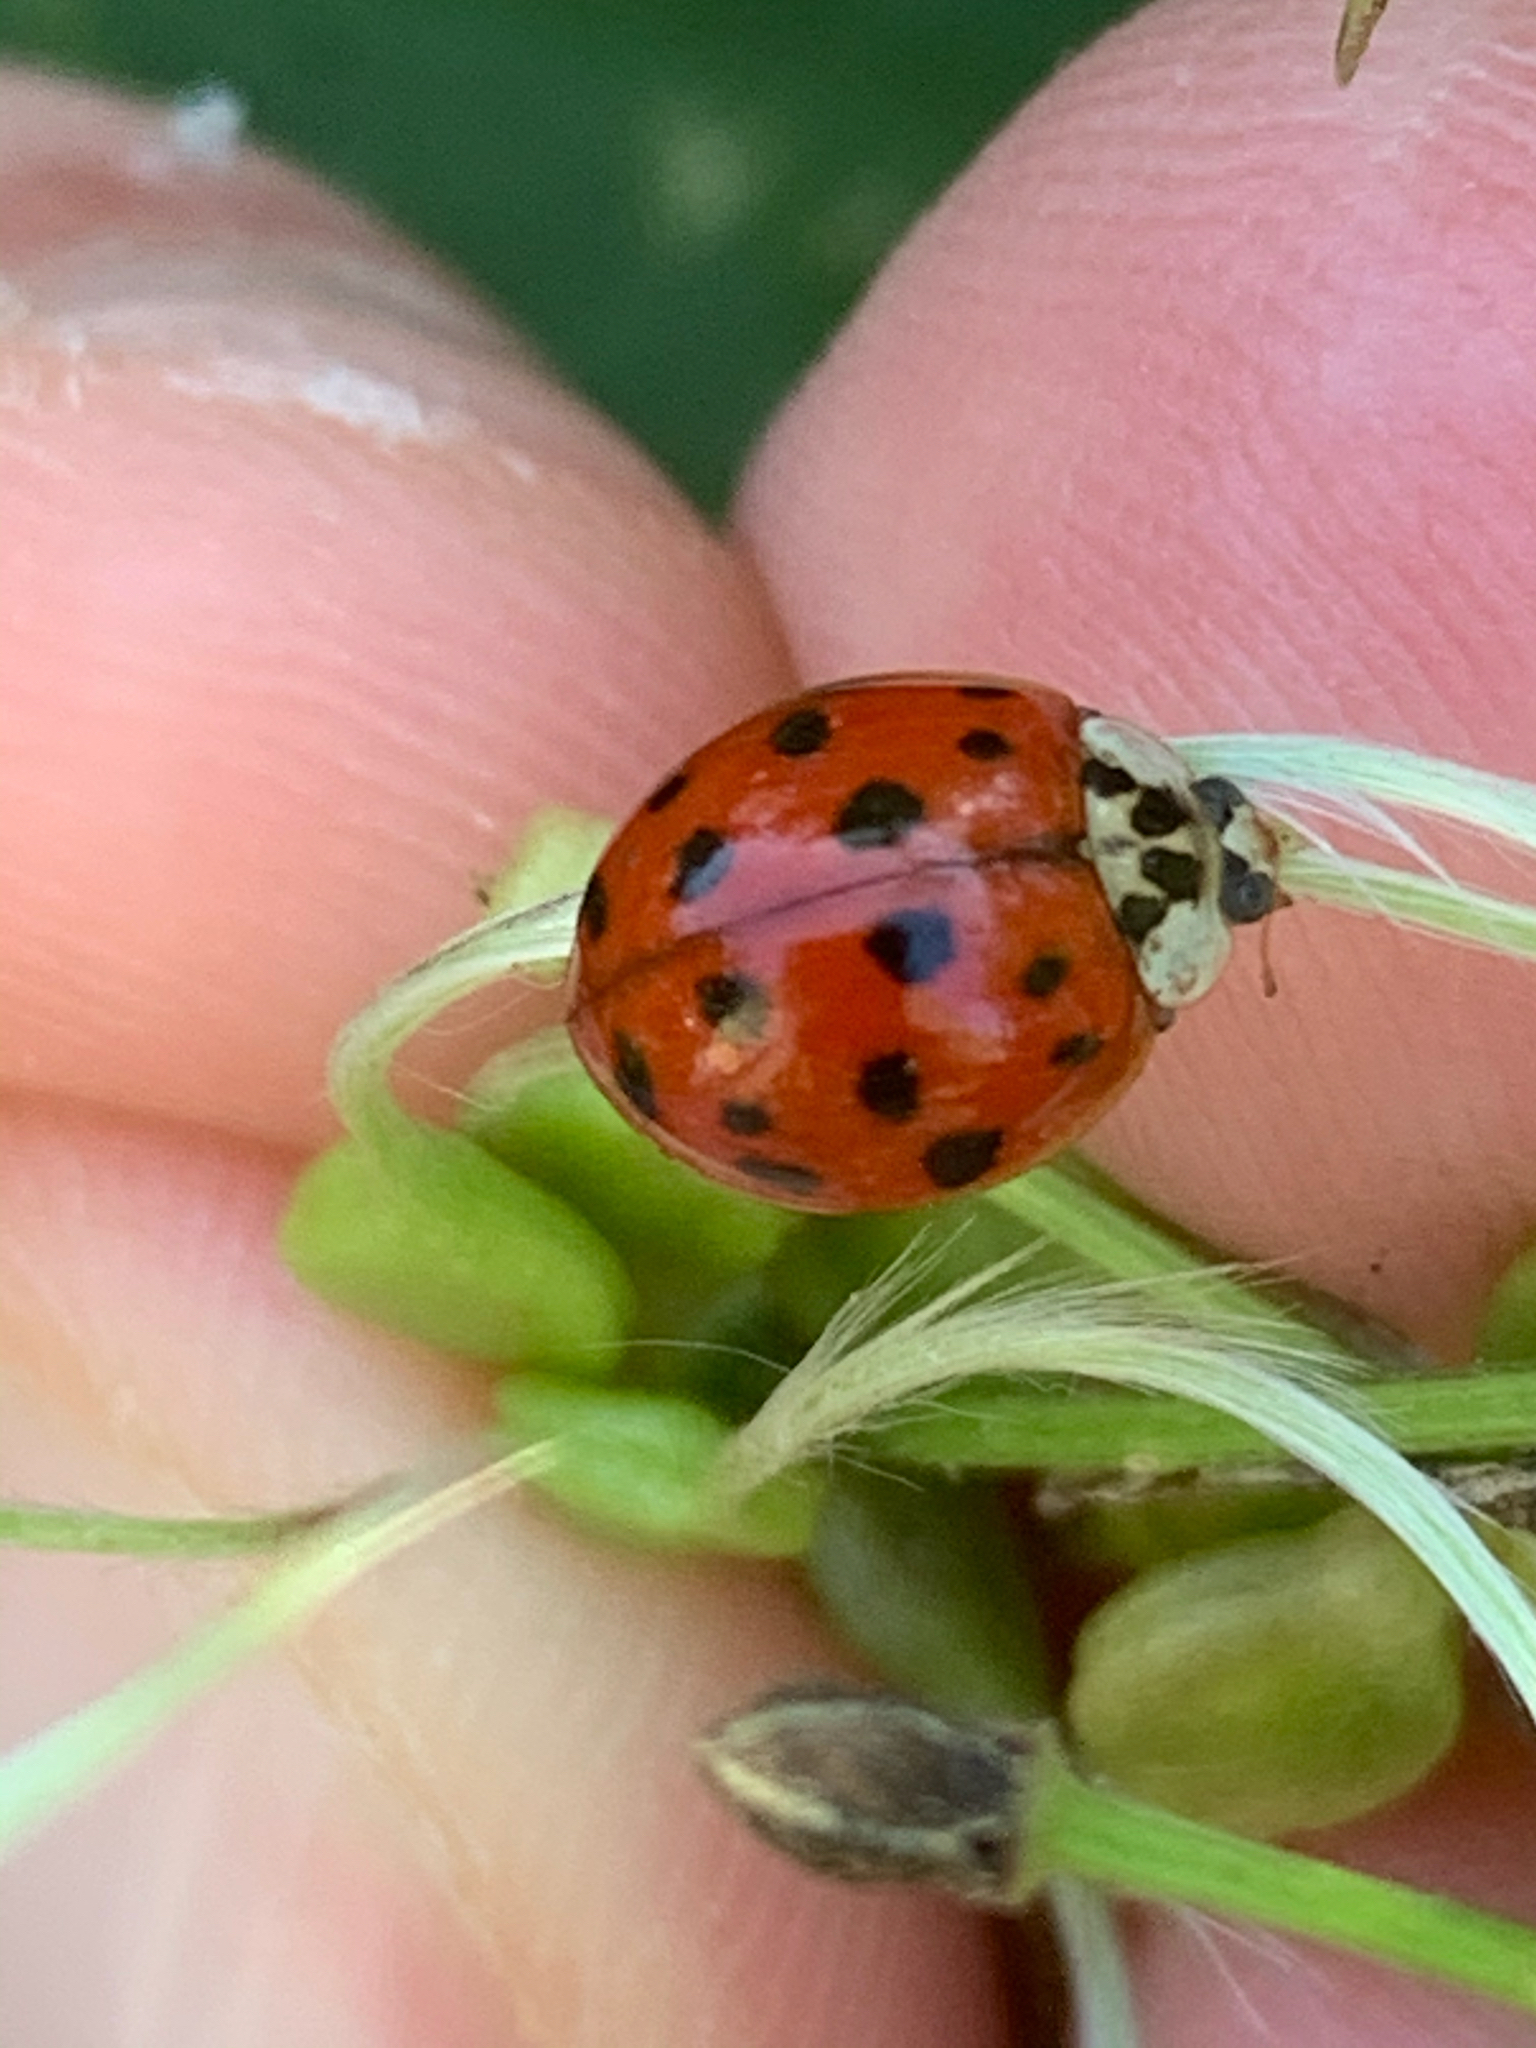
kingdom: Animalia
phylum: Arthropoda
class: Insecta
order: Coleoptera
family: Coccinellidae
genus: Harmonia
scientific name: Harmonia axyridis
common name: Harlequin ladybird
